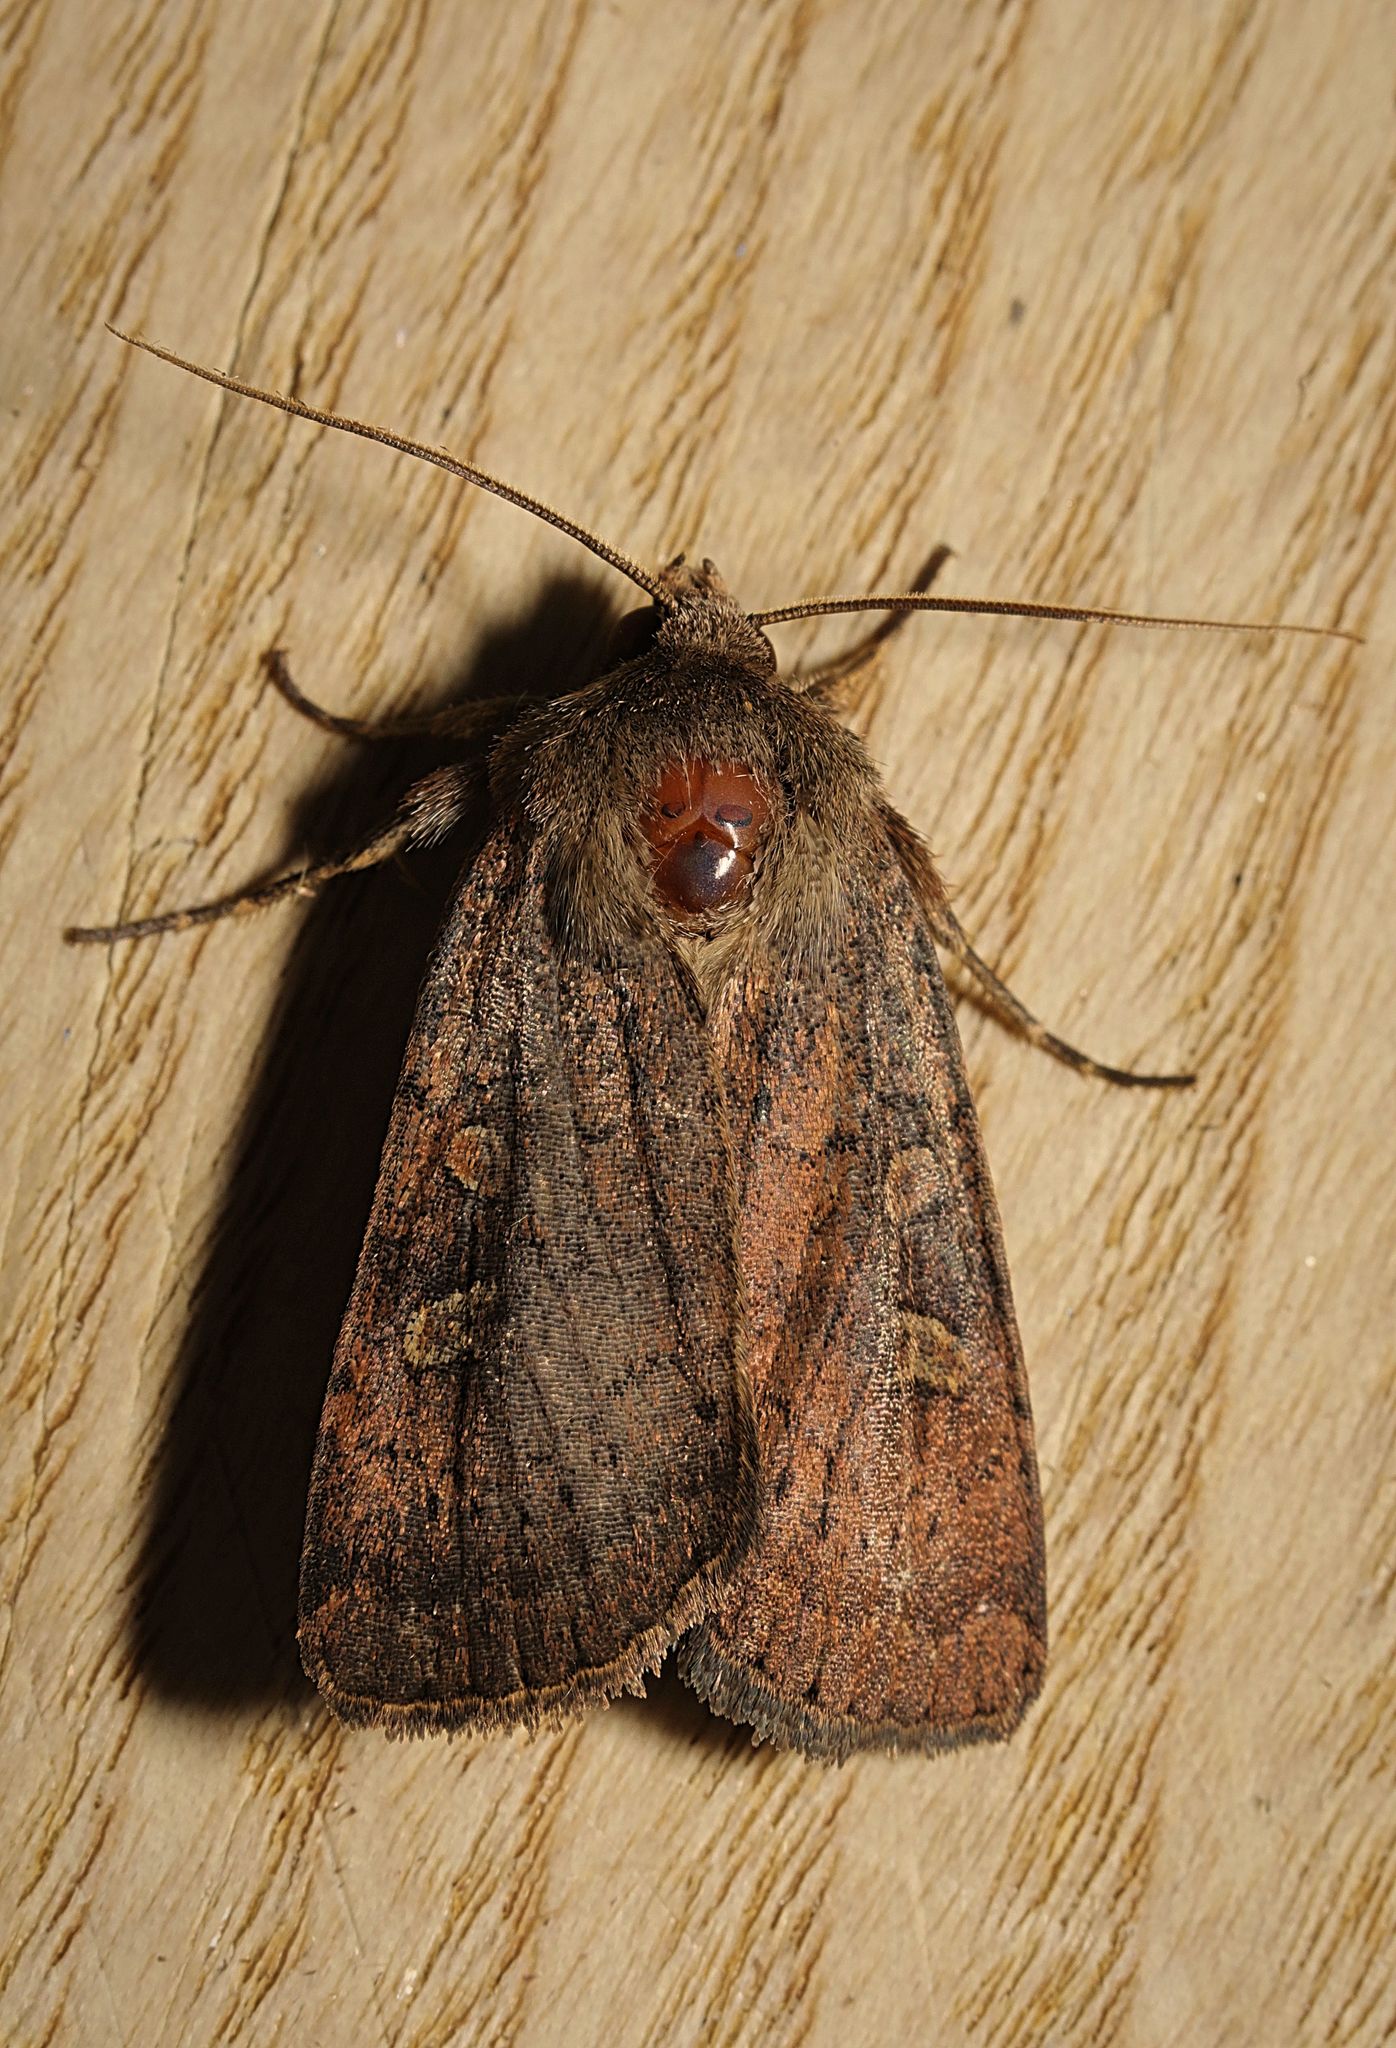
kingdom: Animalia
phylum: Arthropoda
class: Insecta
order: Lepidoptera
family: Noctuidae
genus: Xestia
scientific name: Xestia xanthographa
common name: Square-spot rustic
